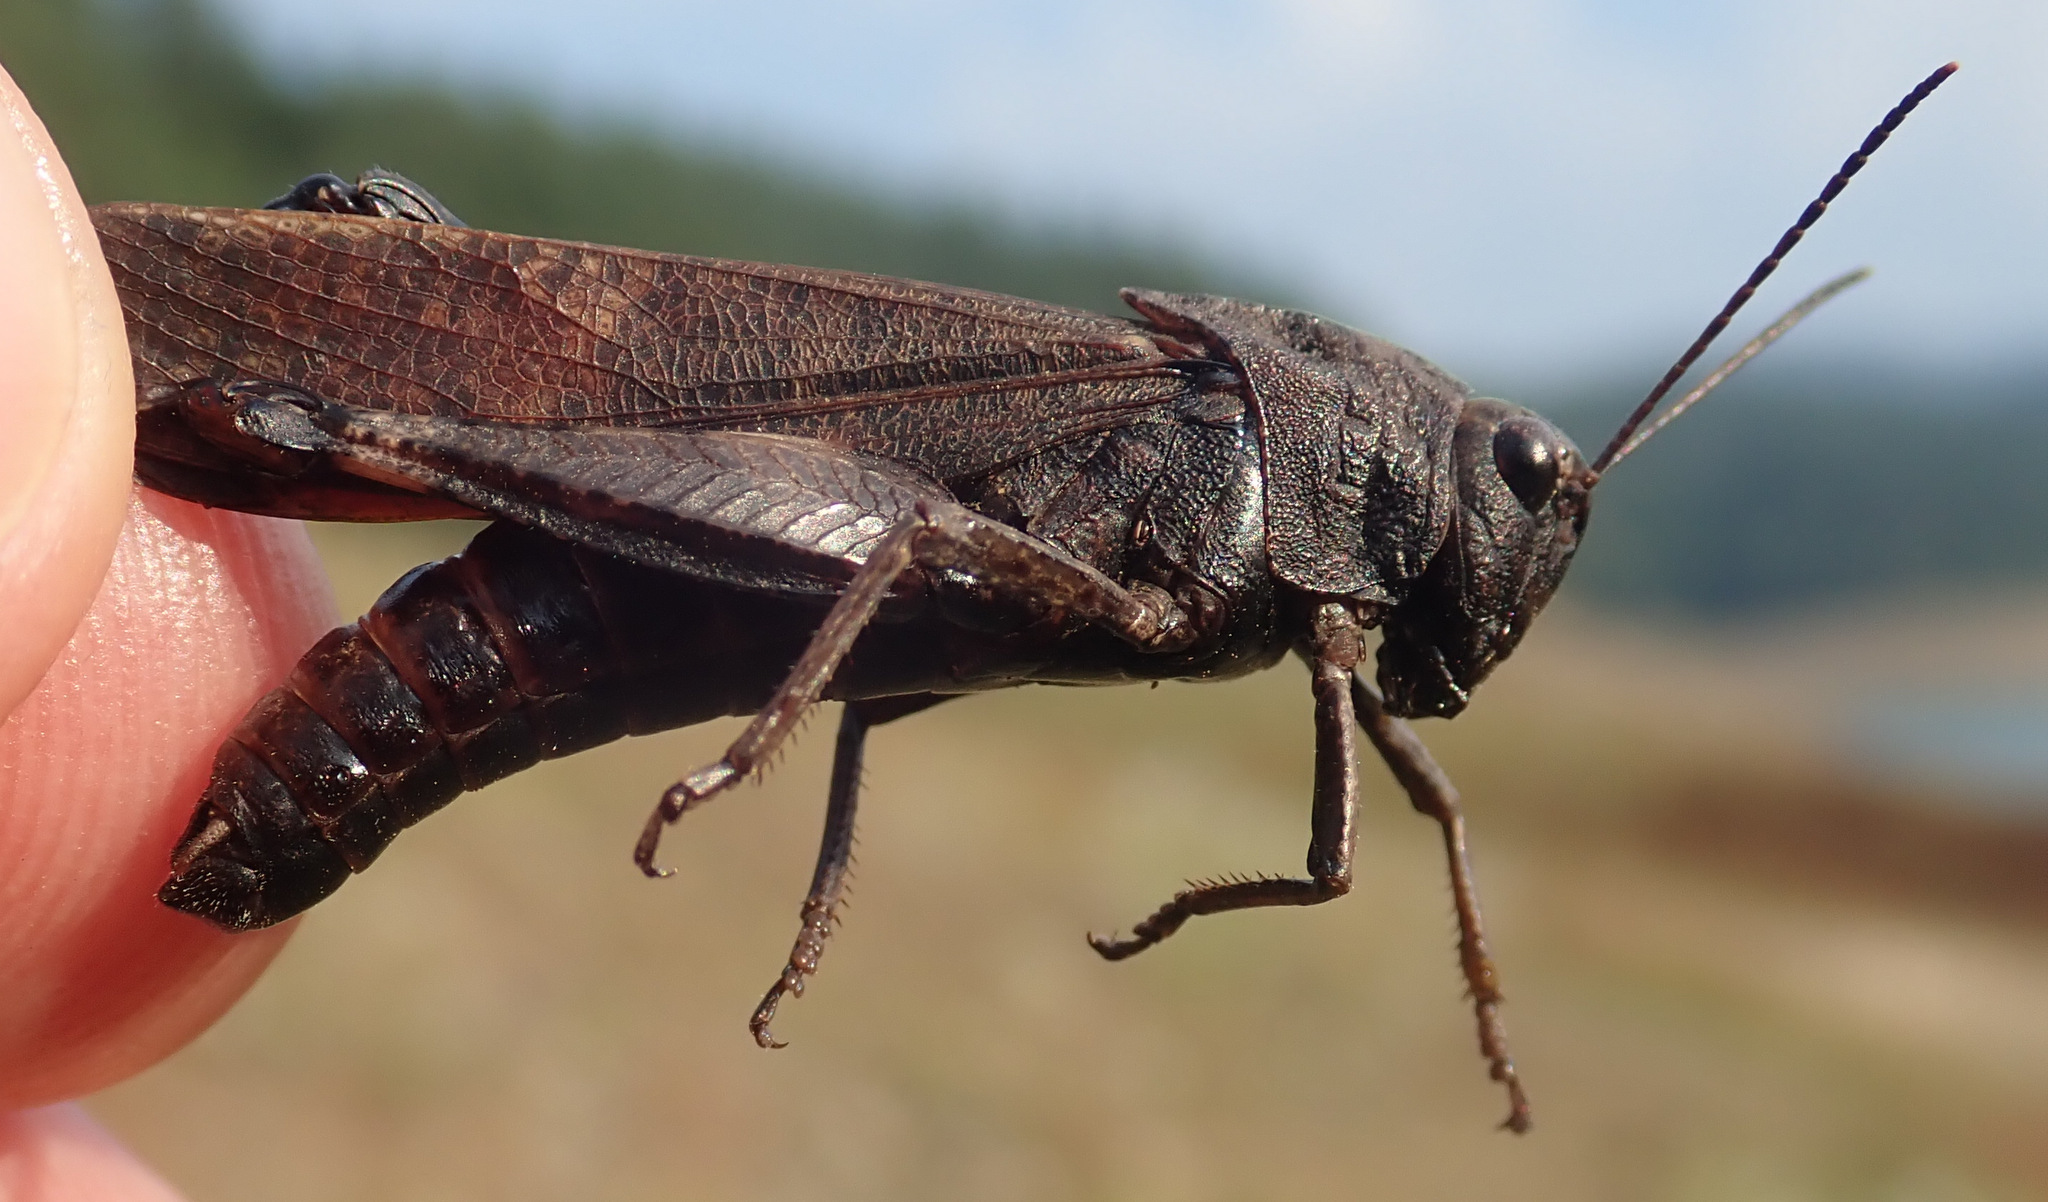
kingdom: Animalia
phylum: Arthropoda
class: Insecta
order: Orthoptera
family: Acrididae
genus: Psophus
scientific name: Psophus stridulus
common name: Rattle grasshopper
